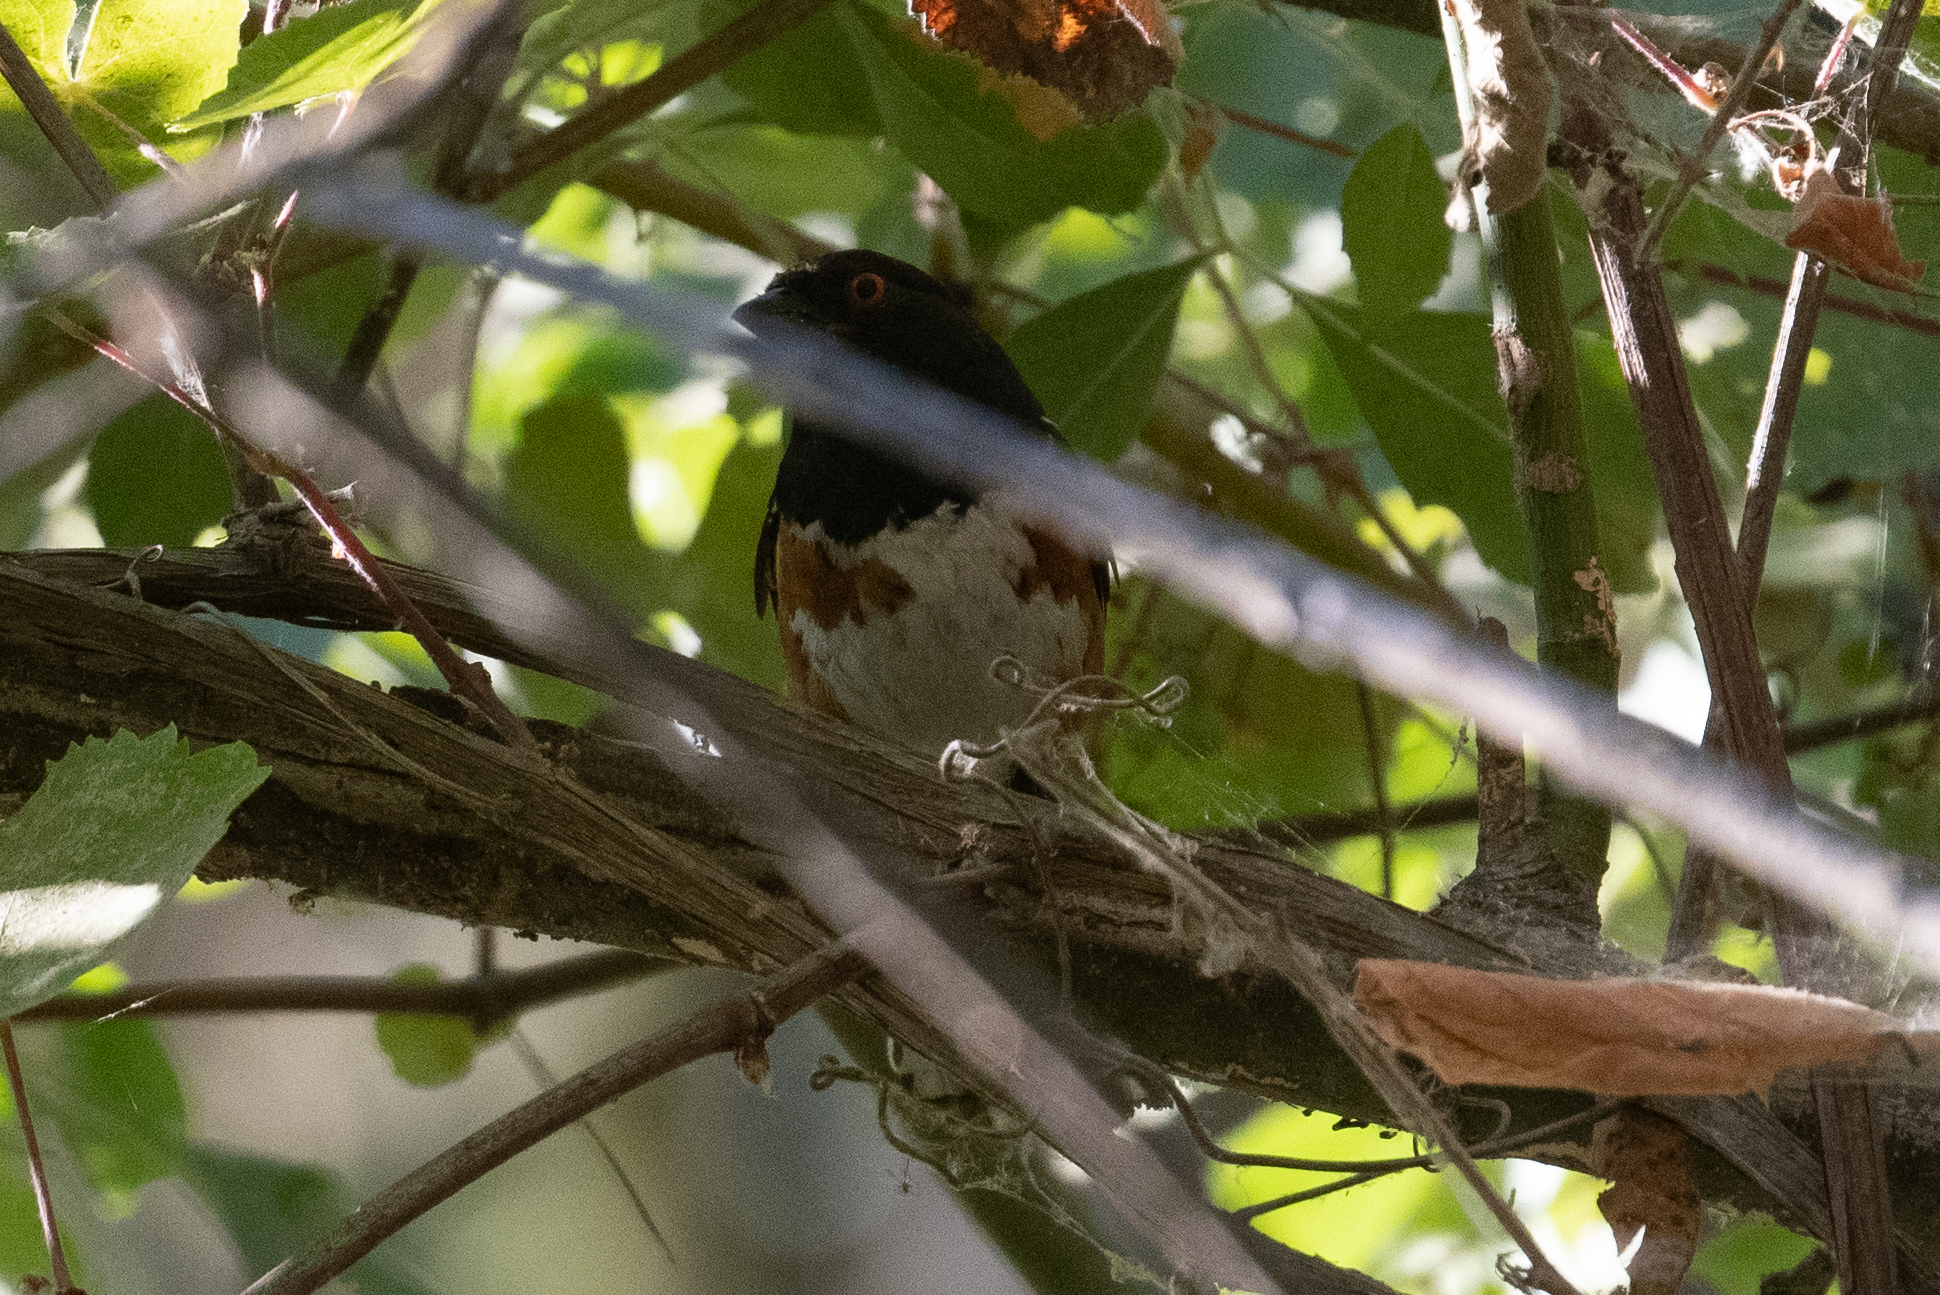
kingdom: Animalia
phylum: Chordata
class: Aves
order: Passeriformes
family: Passerellidae
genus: Pipilo
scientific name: Pipilo maculatus
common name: Spotted towhee
